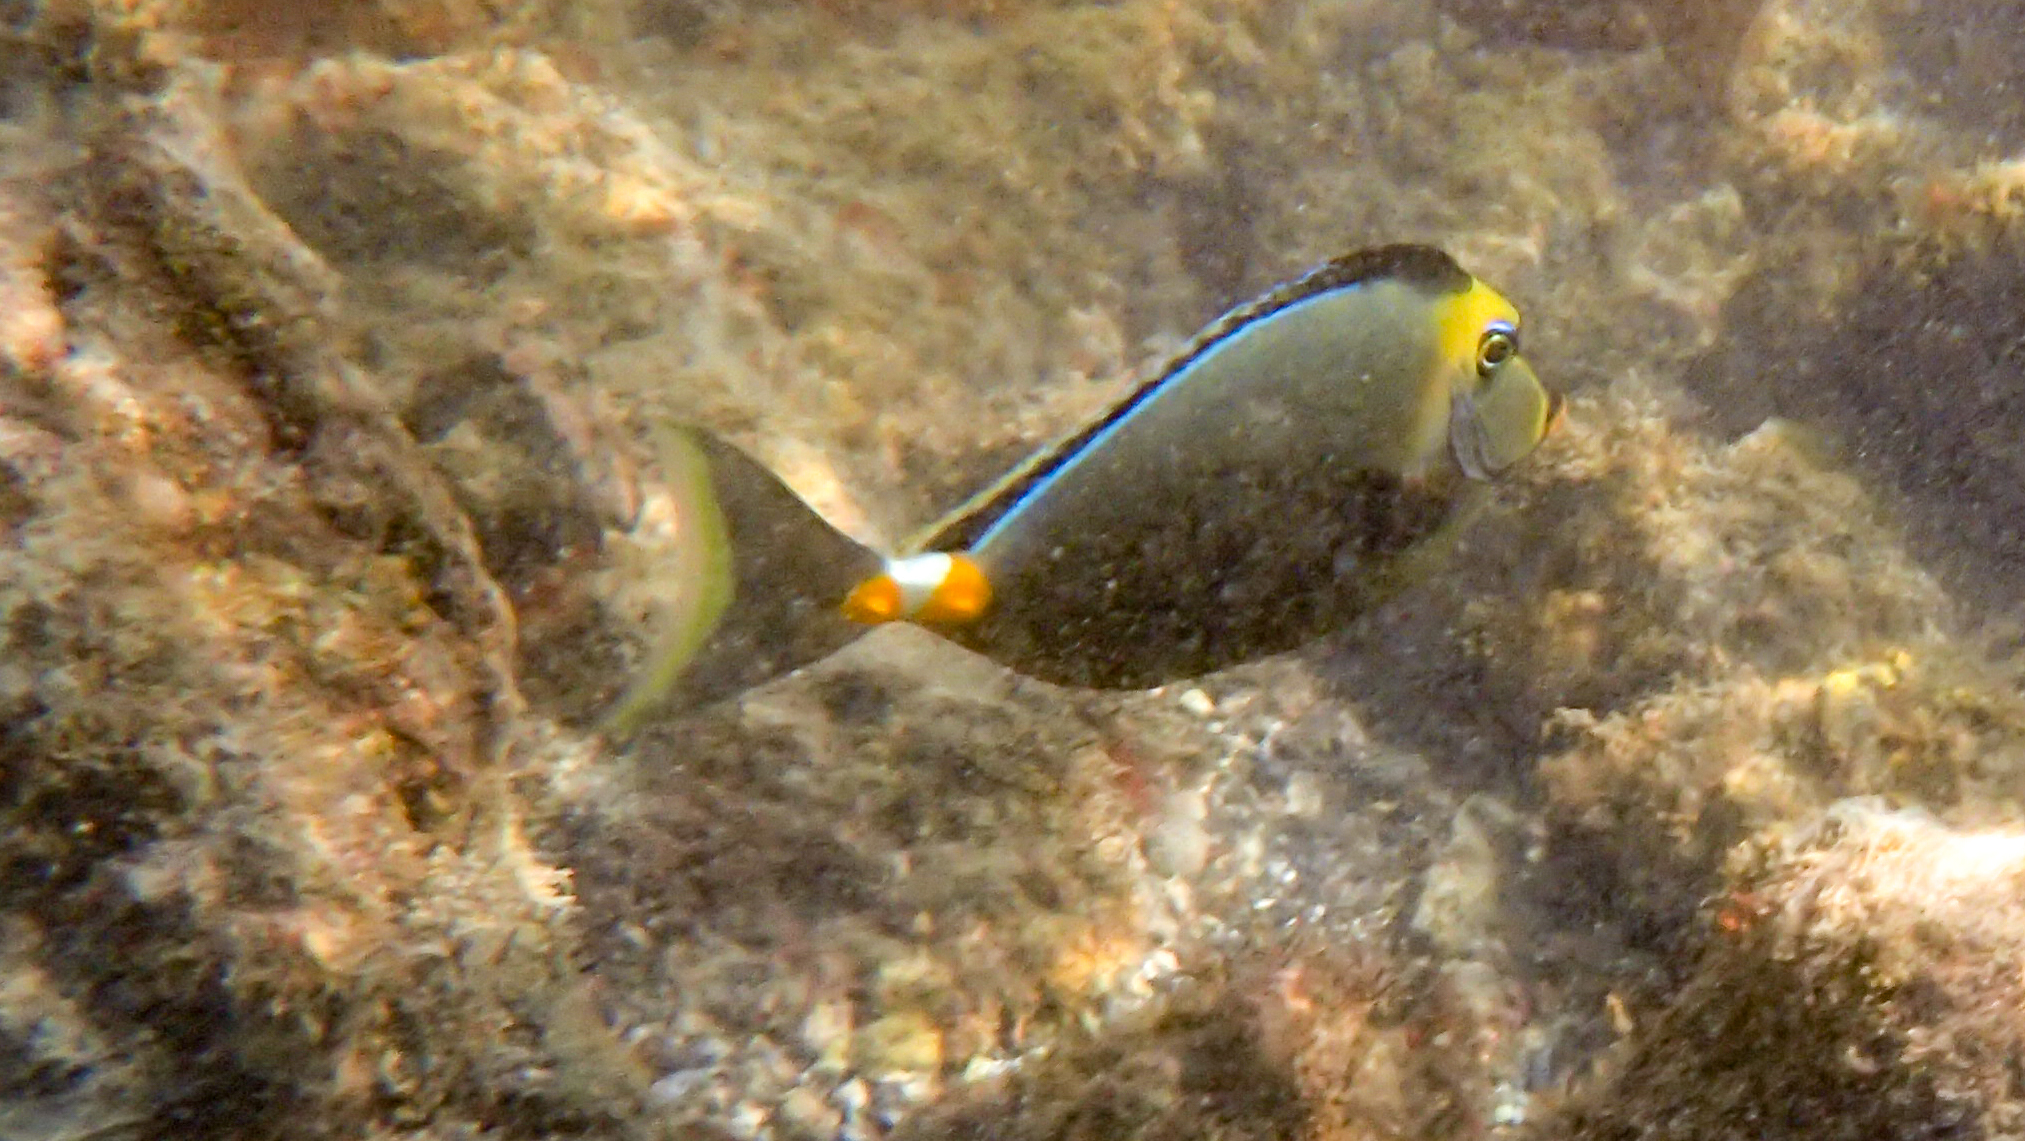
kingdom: Animalia
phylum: Chordata
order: Perciformes
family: Acanthuridae
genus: Naso
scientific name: Naso lituratus
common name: Orangespine unicornfish
